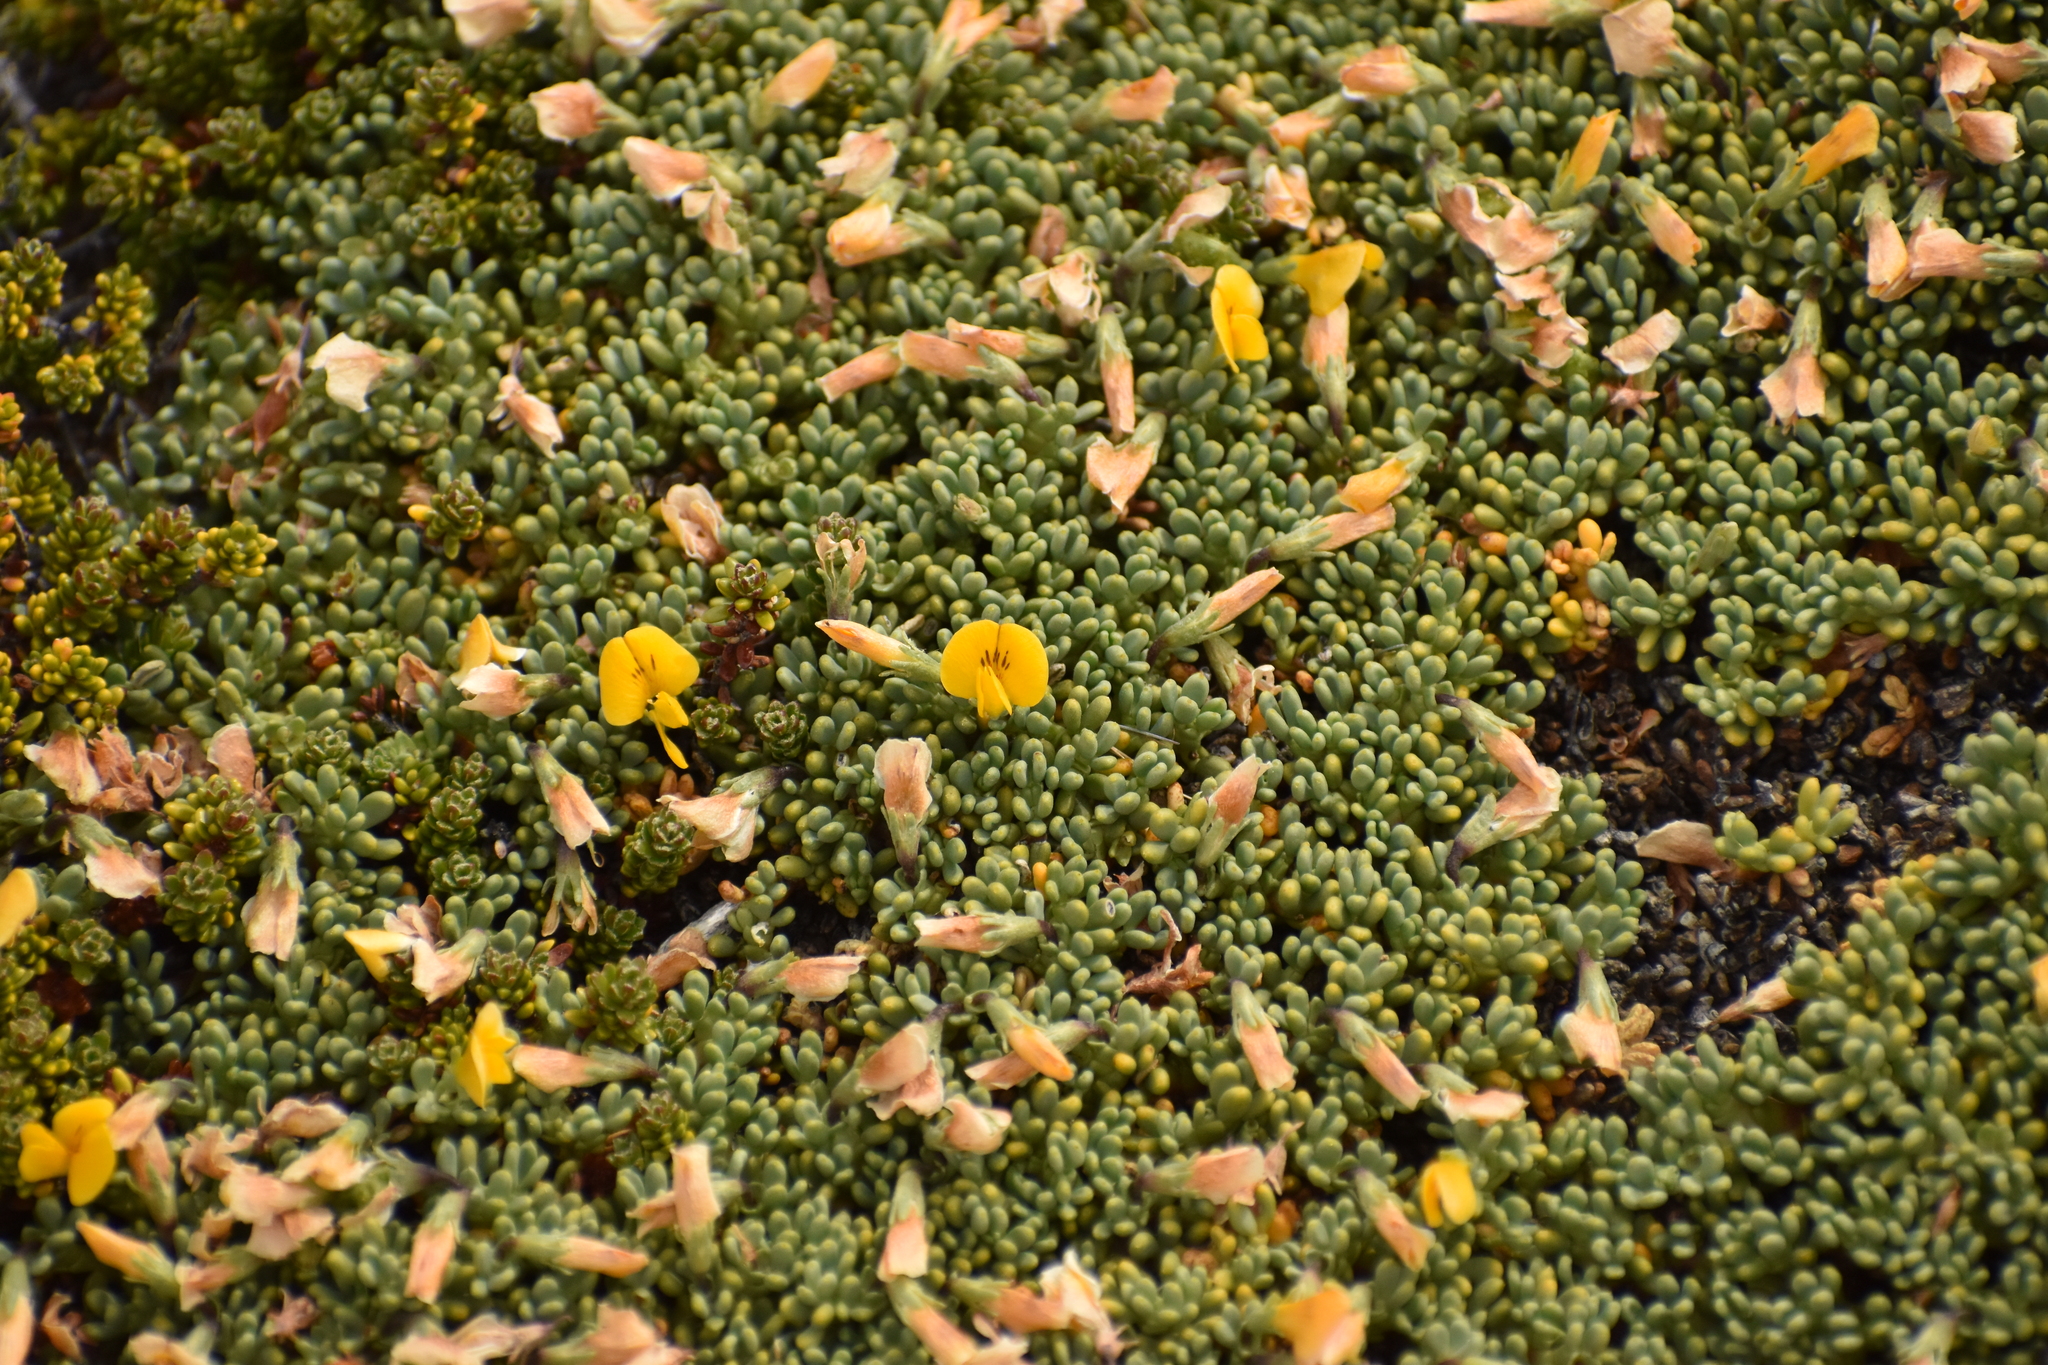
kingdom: Plantae
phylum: Tracheophyta
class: Magnoliopsida
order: Fabales
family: Fabaceae
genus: Adesmia
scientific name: Adesmia salicornioides
